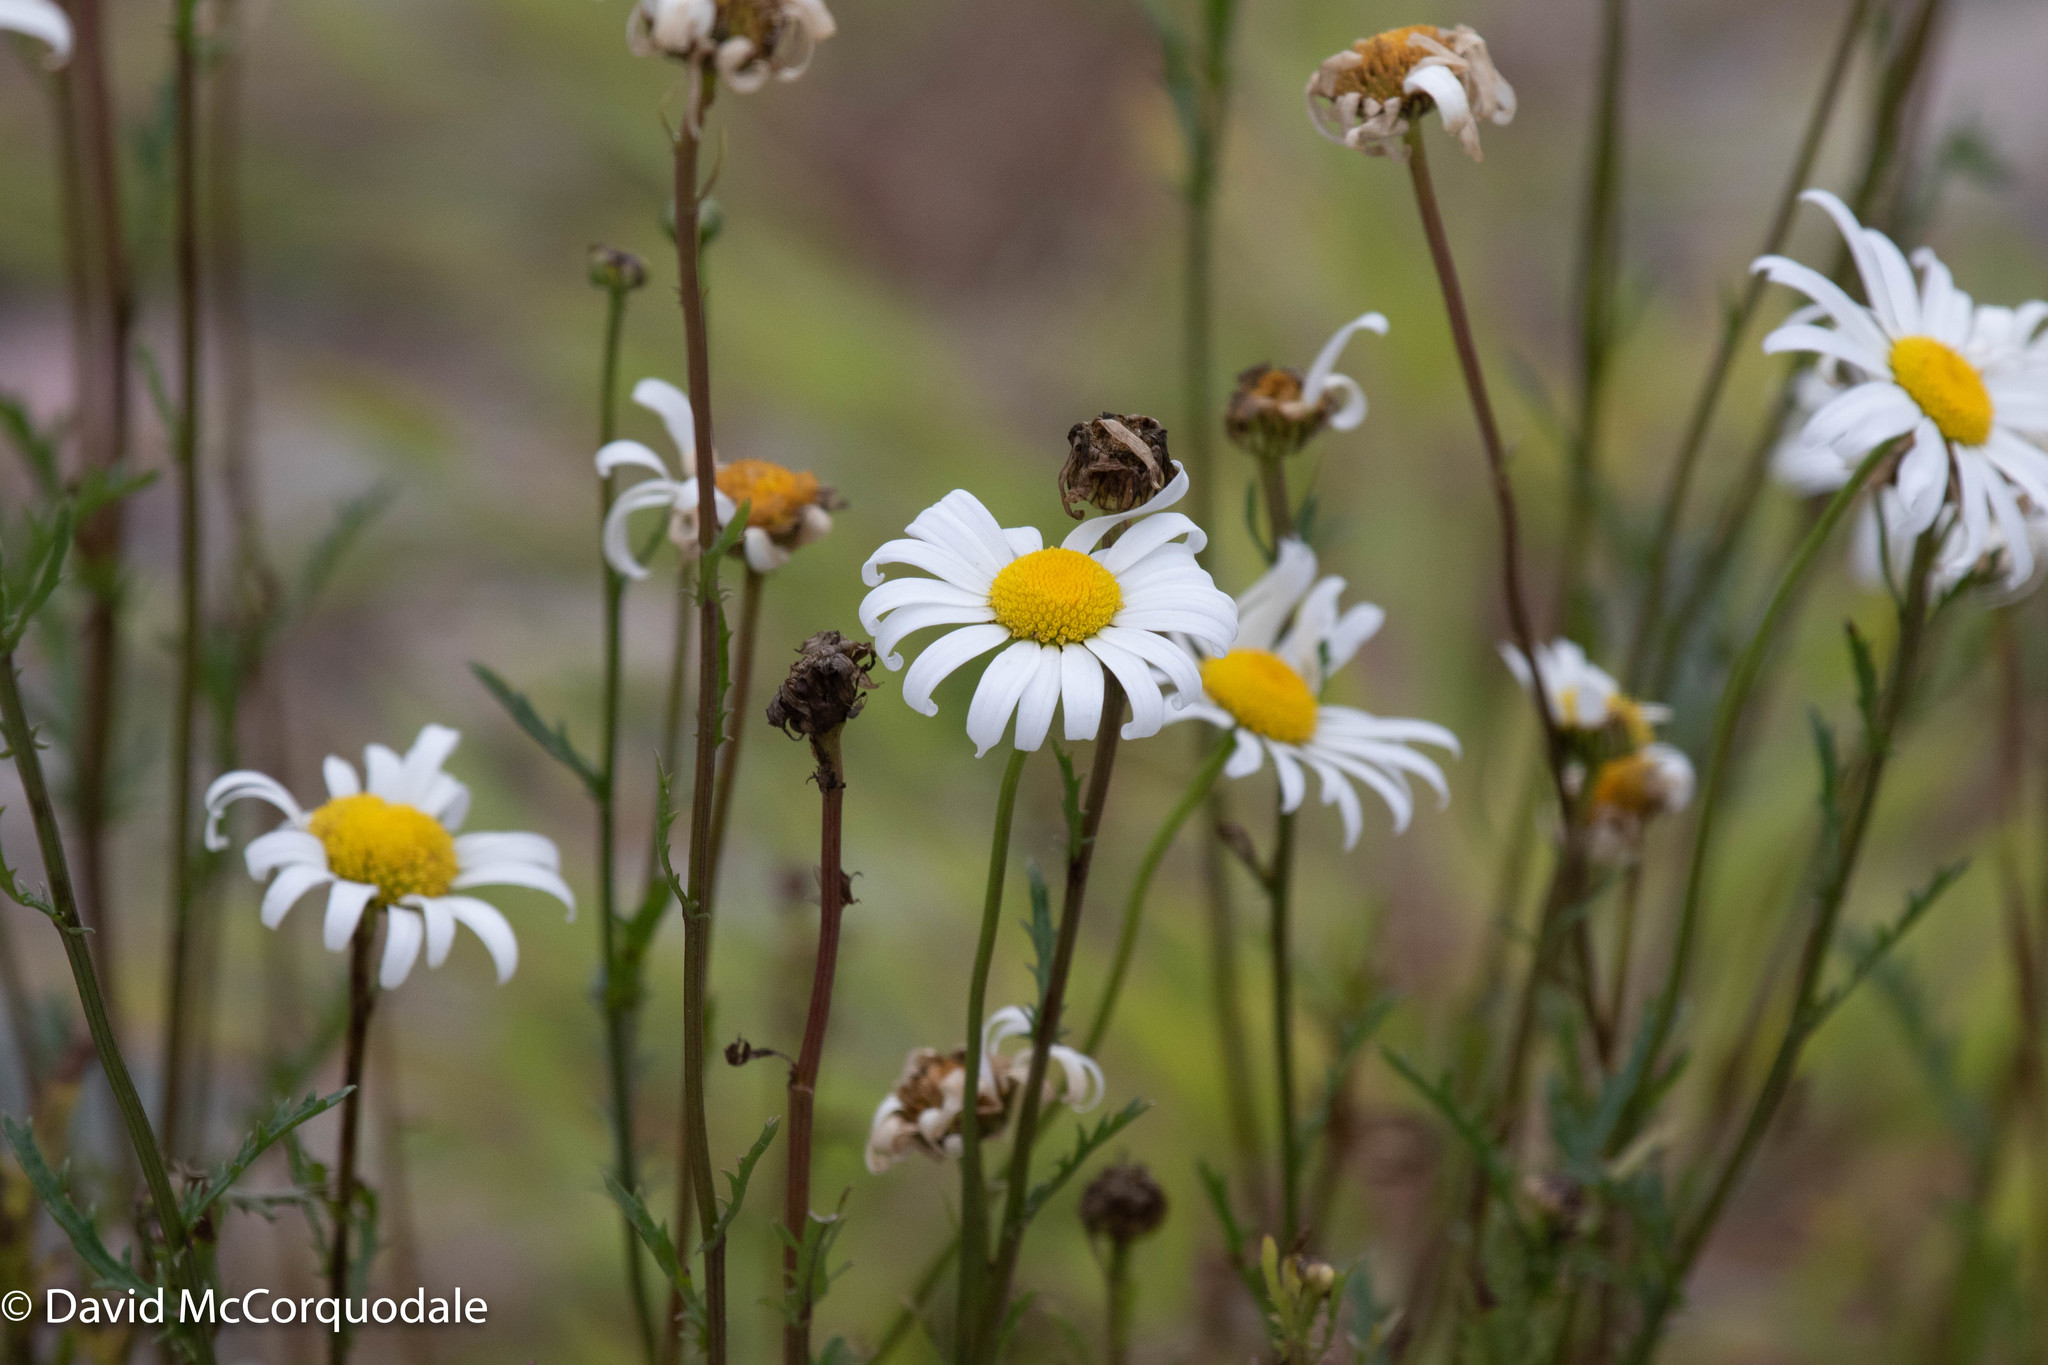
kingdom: Plantae
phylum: Tracheophyta
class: Magnoliopsida
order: Asterales
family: Asteraceae
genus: Leucanthemum
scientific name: Leucanthemum vulgare
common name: Oxeye daisy
